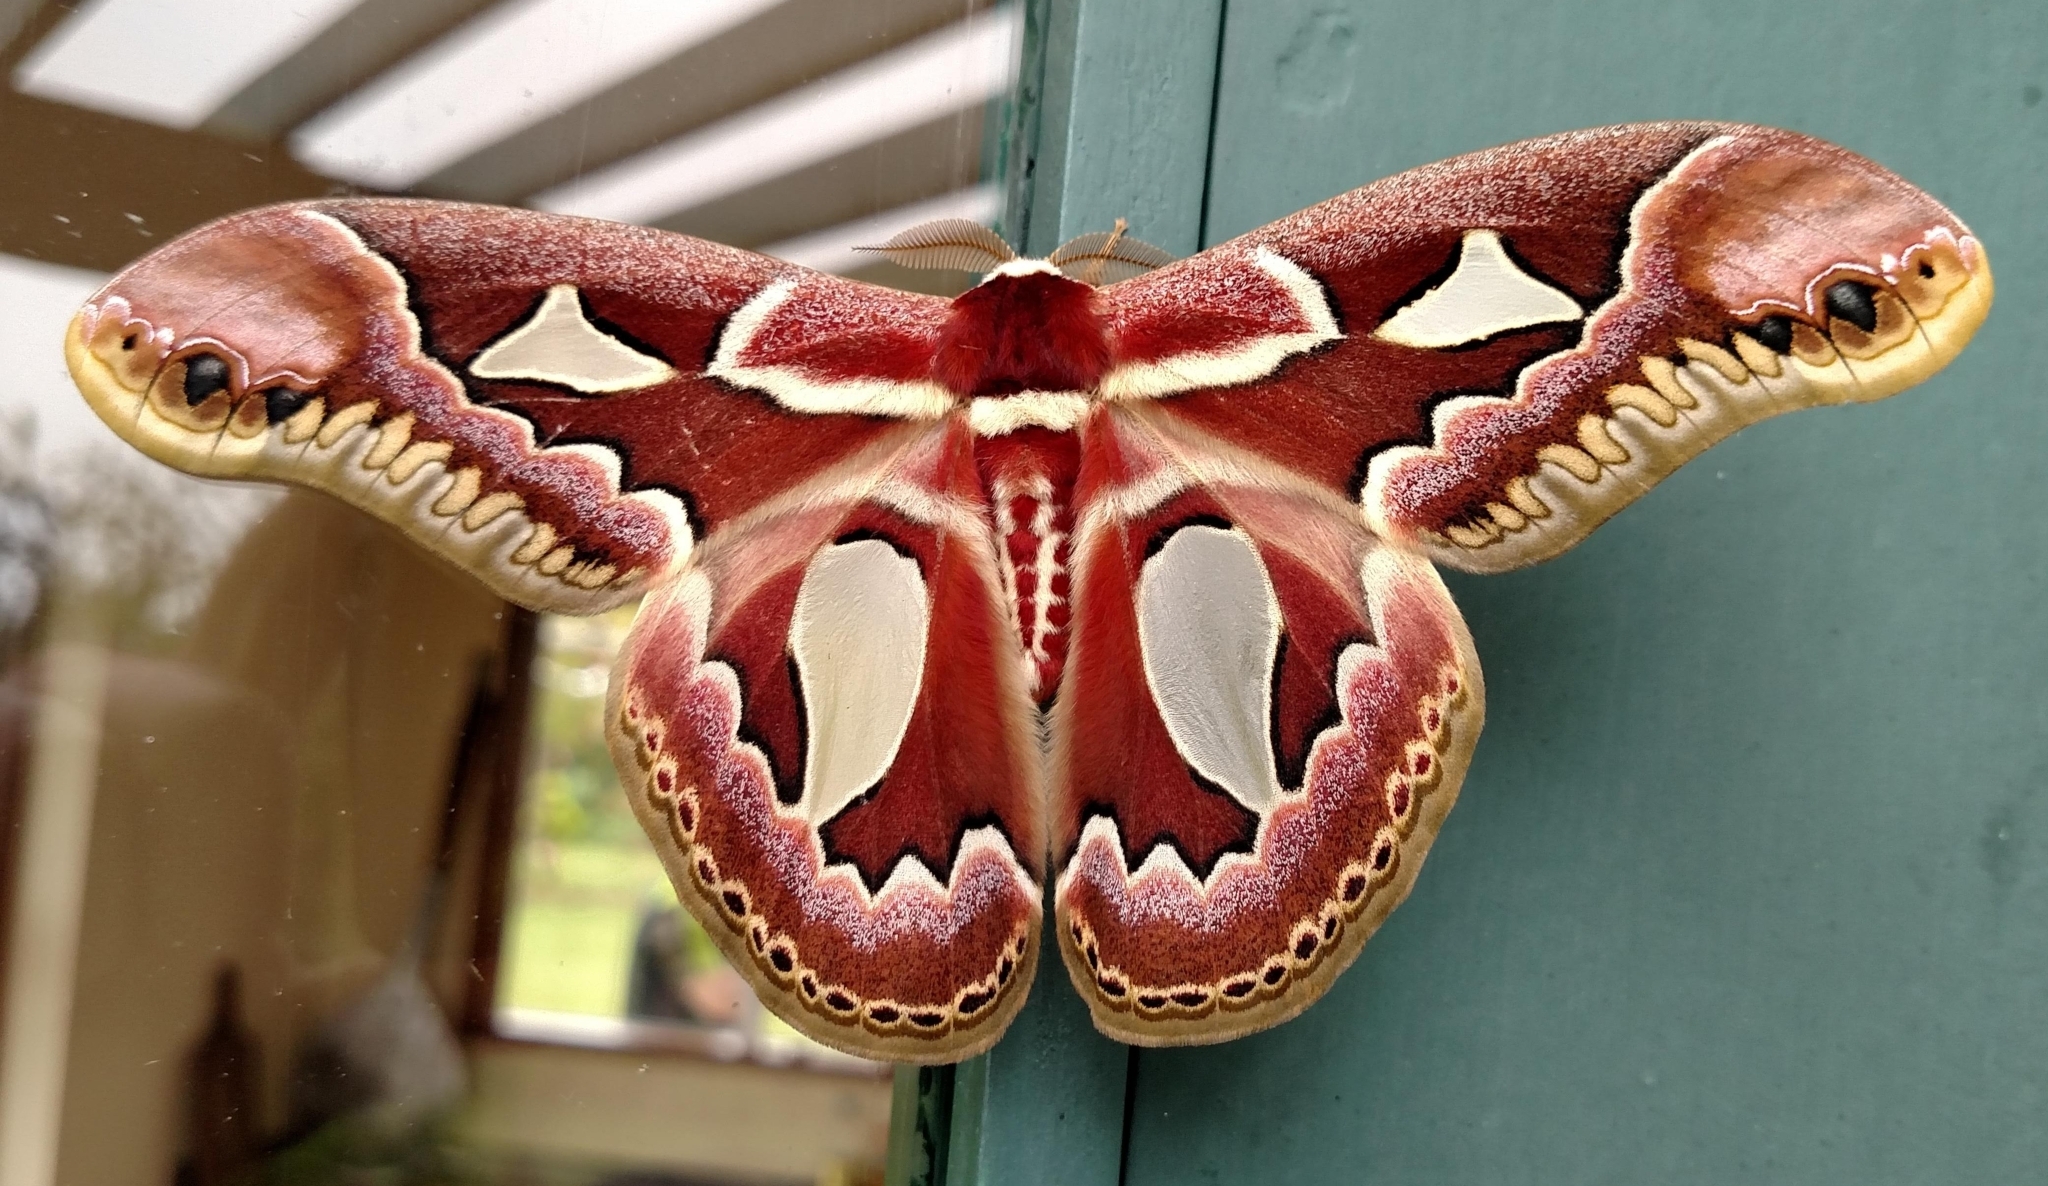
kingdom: Animalia
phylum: Arthropoda
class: Insecta
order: Lepidoptera
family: Saturniidae
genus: Rothschildia
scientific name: Rothschildia jacobaeae
